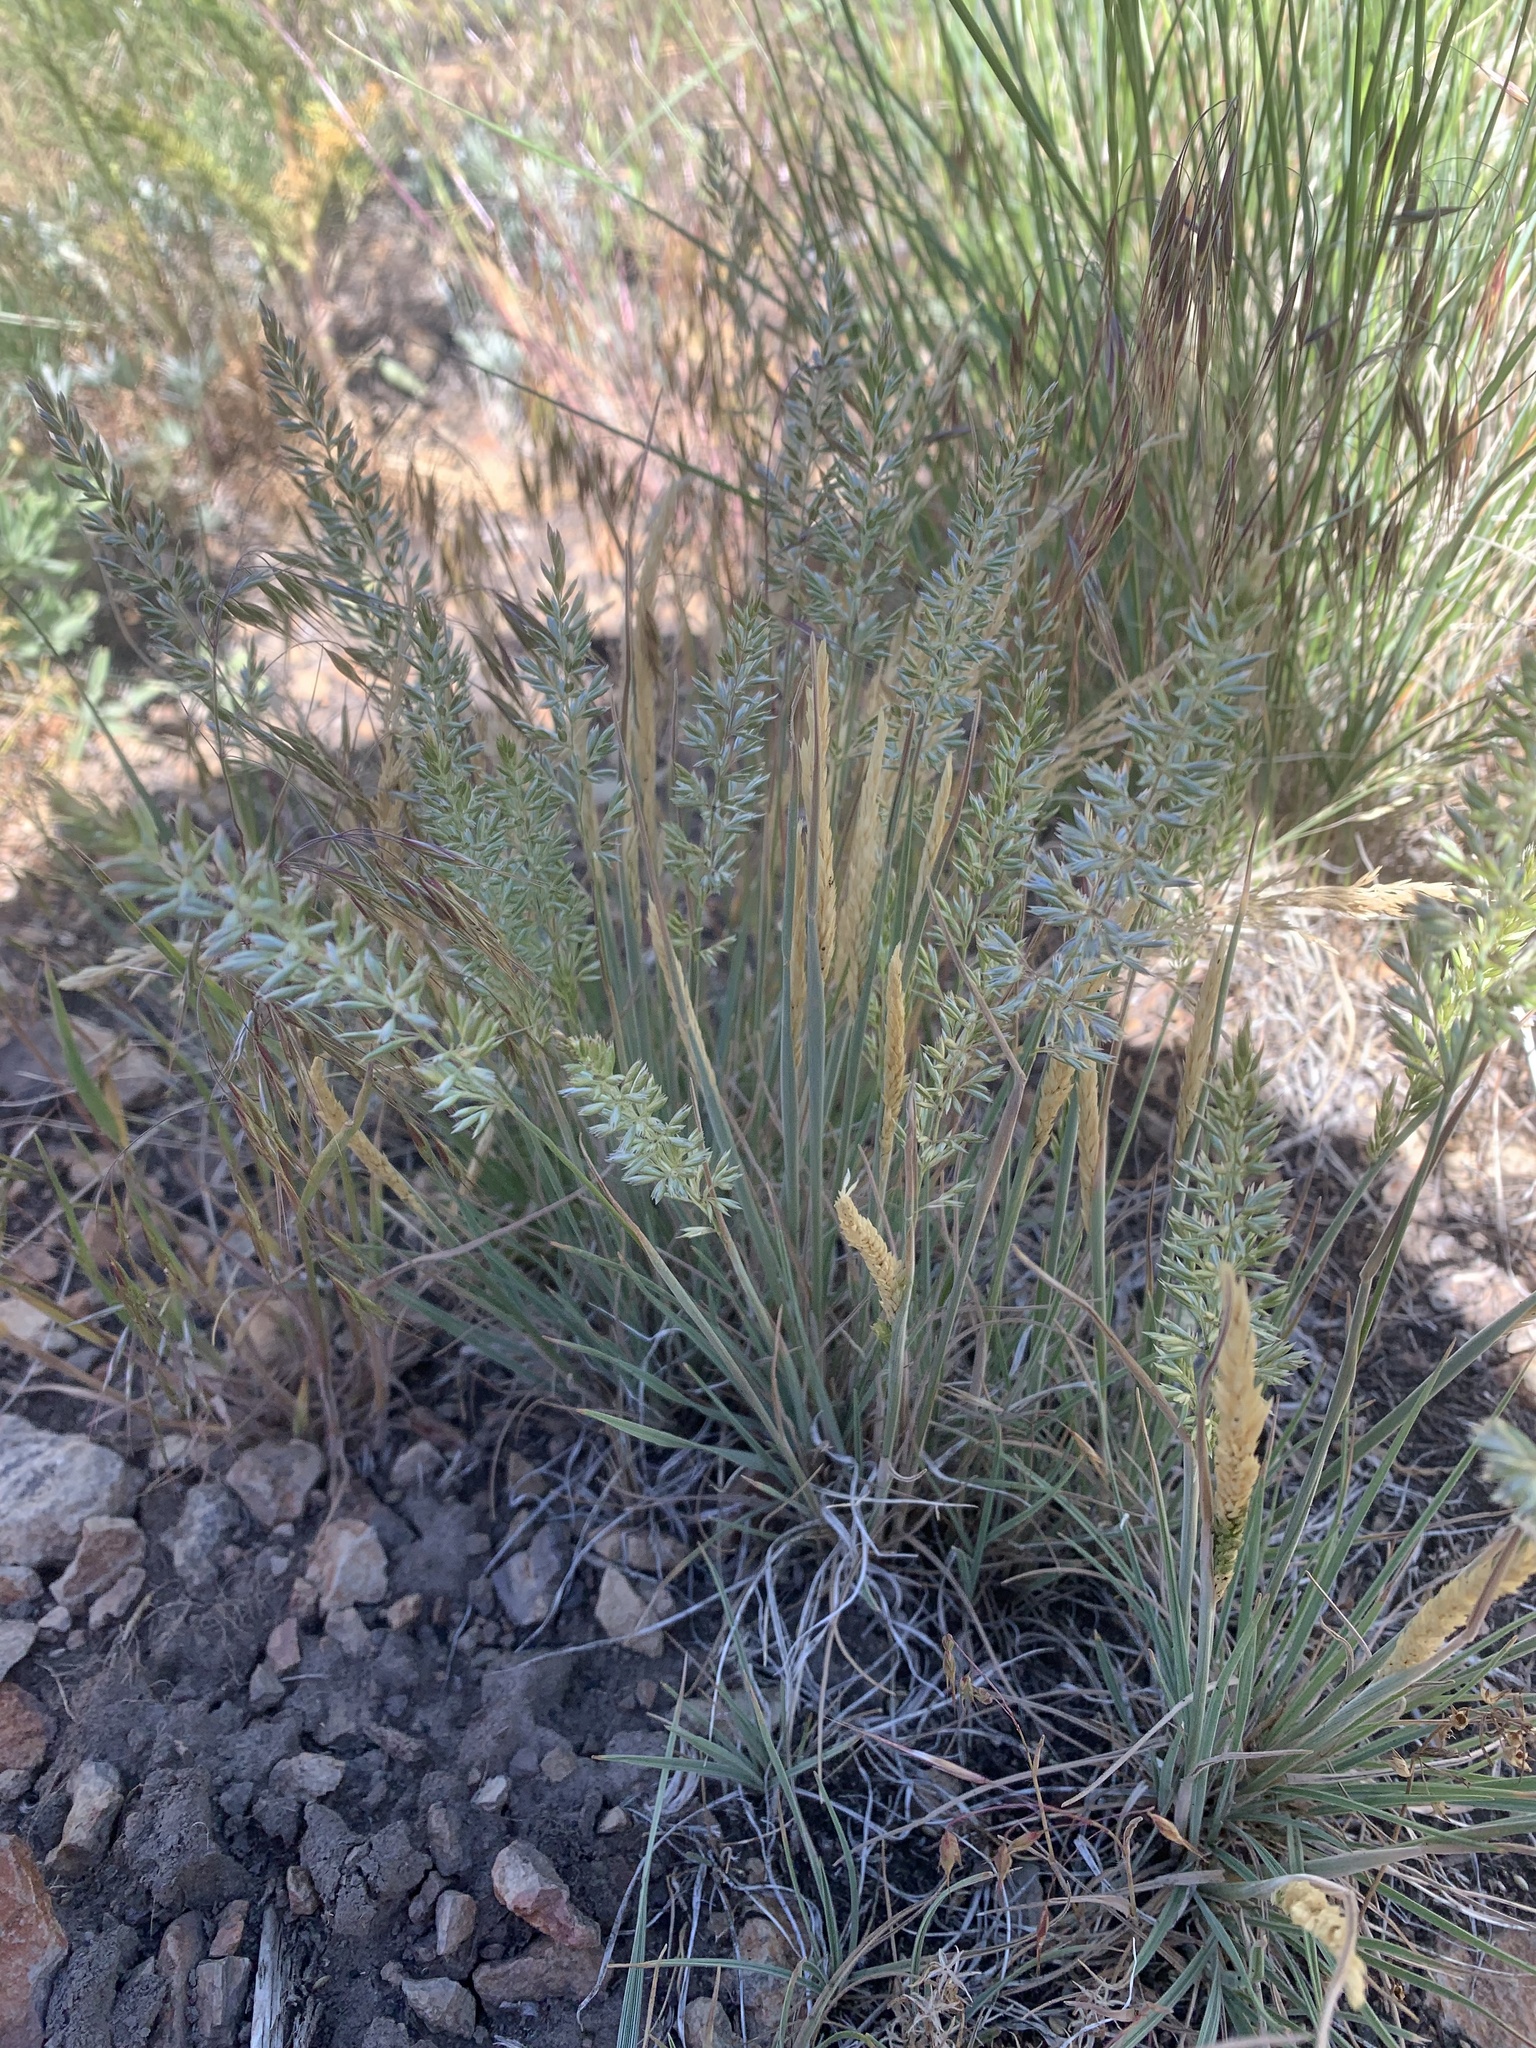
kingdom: Plantae
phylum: Tracheophyta
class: Liliopsida
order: Poales
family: Poaceae
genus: Koeleria
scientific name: Koeleria macrantha
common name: Crested hair-grass
